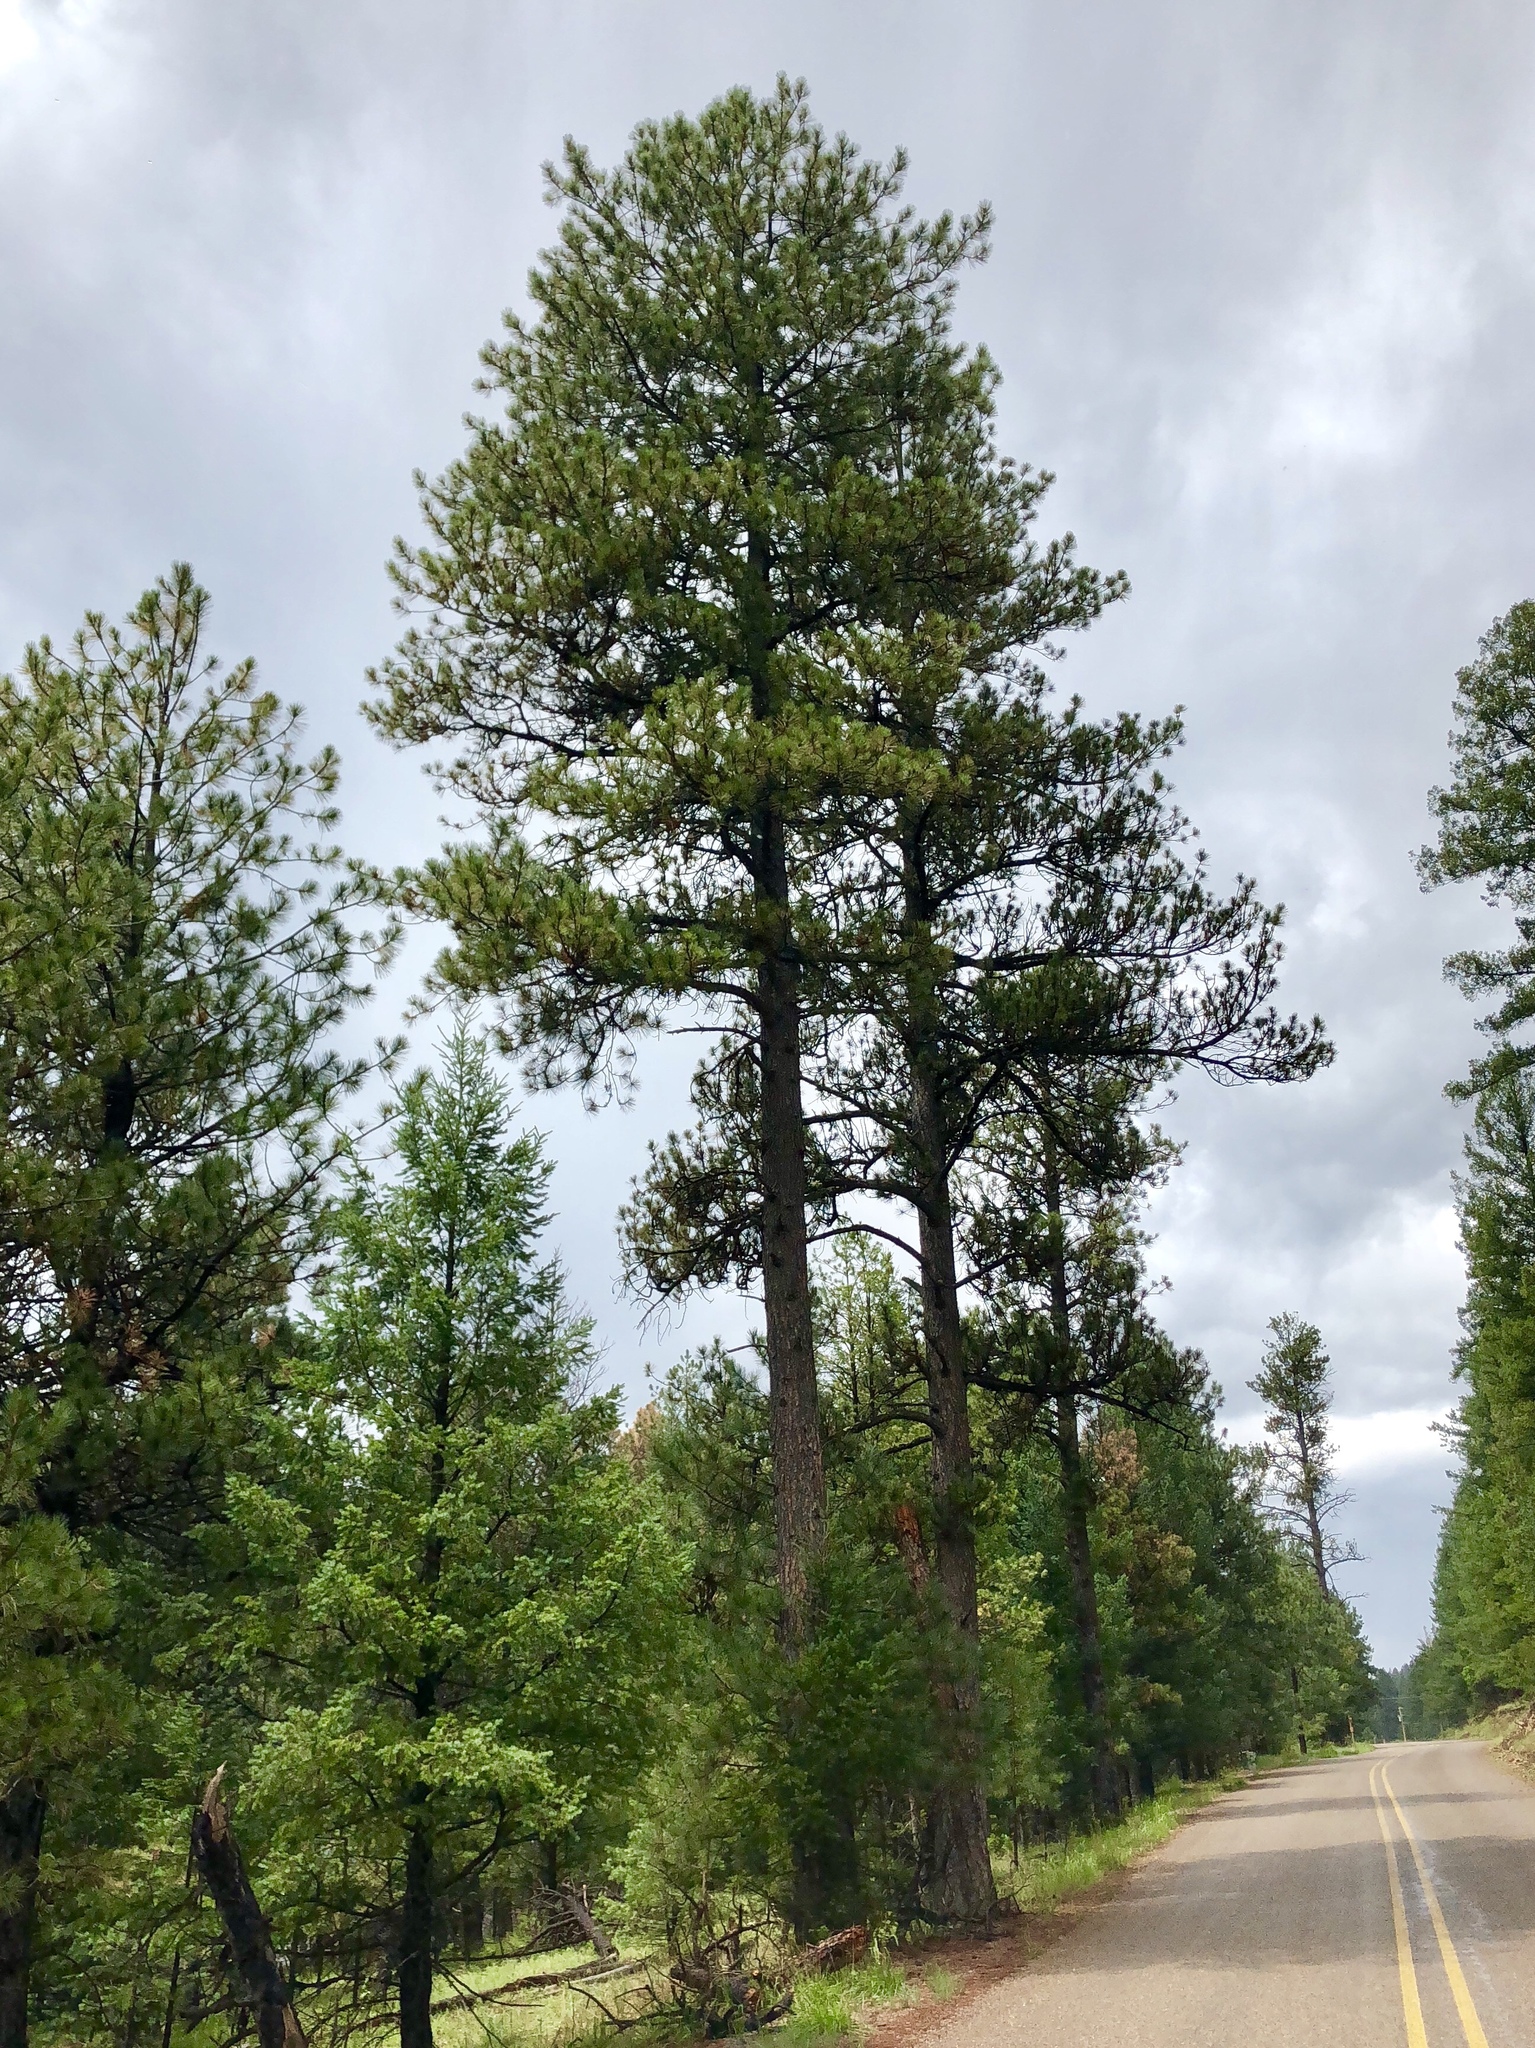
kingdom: Plantae
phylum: Tracheophyta
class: Pinopsida
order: Pinales
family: Pinaceae
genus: Pinus
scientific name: Pinus ponderosa
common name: Western yellow-pine
